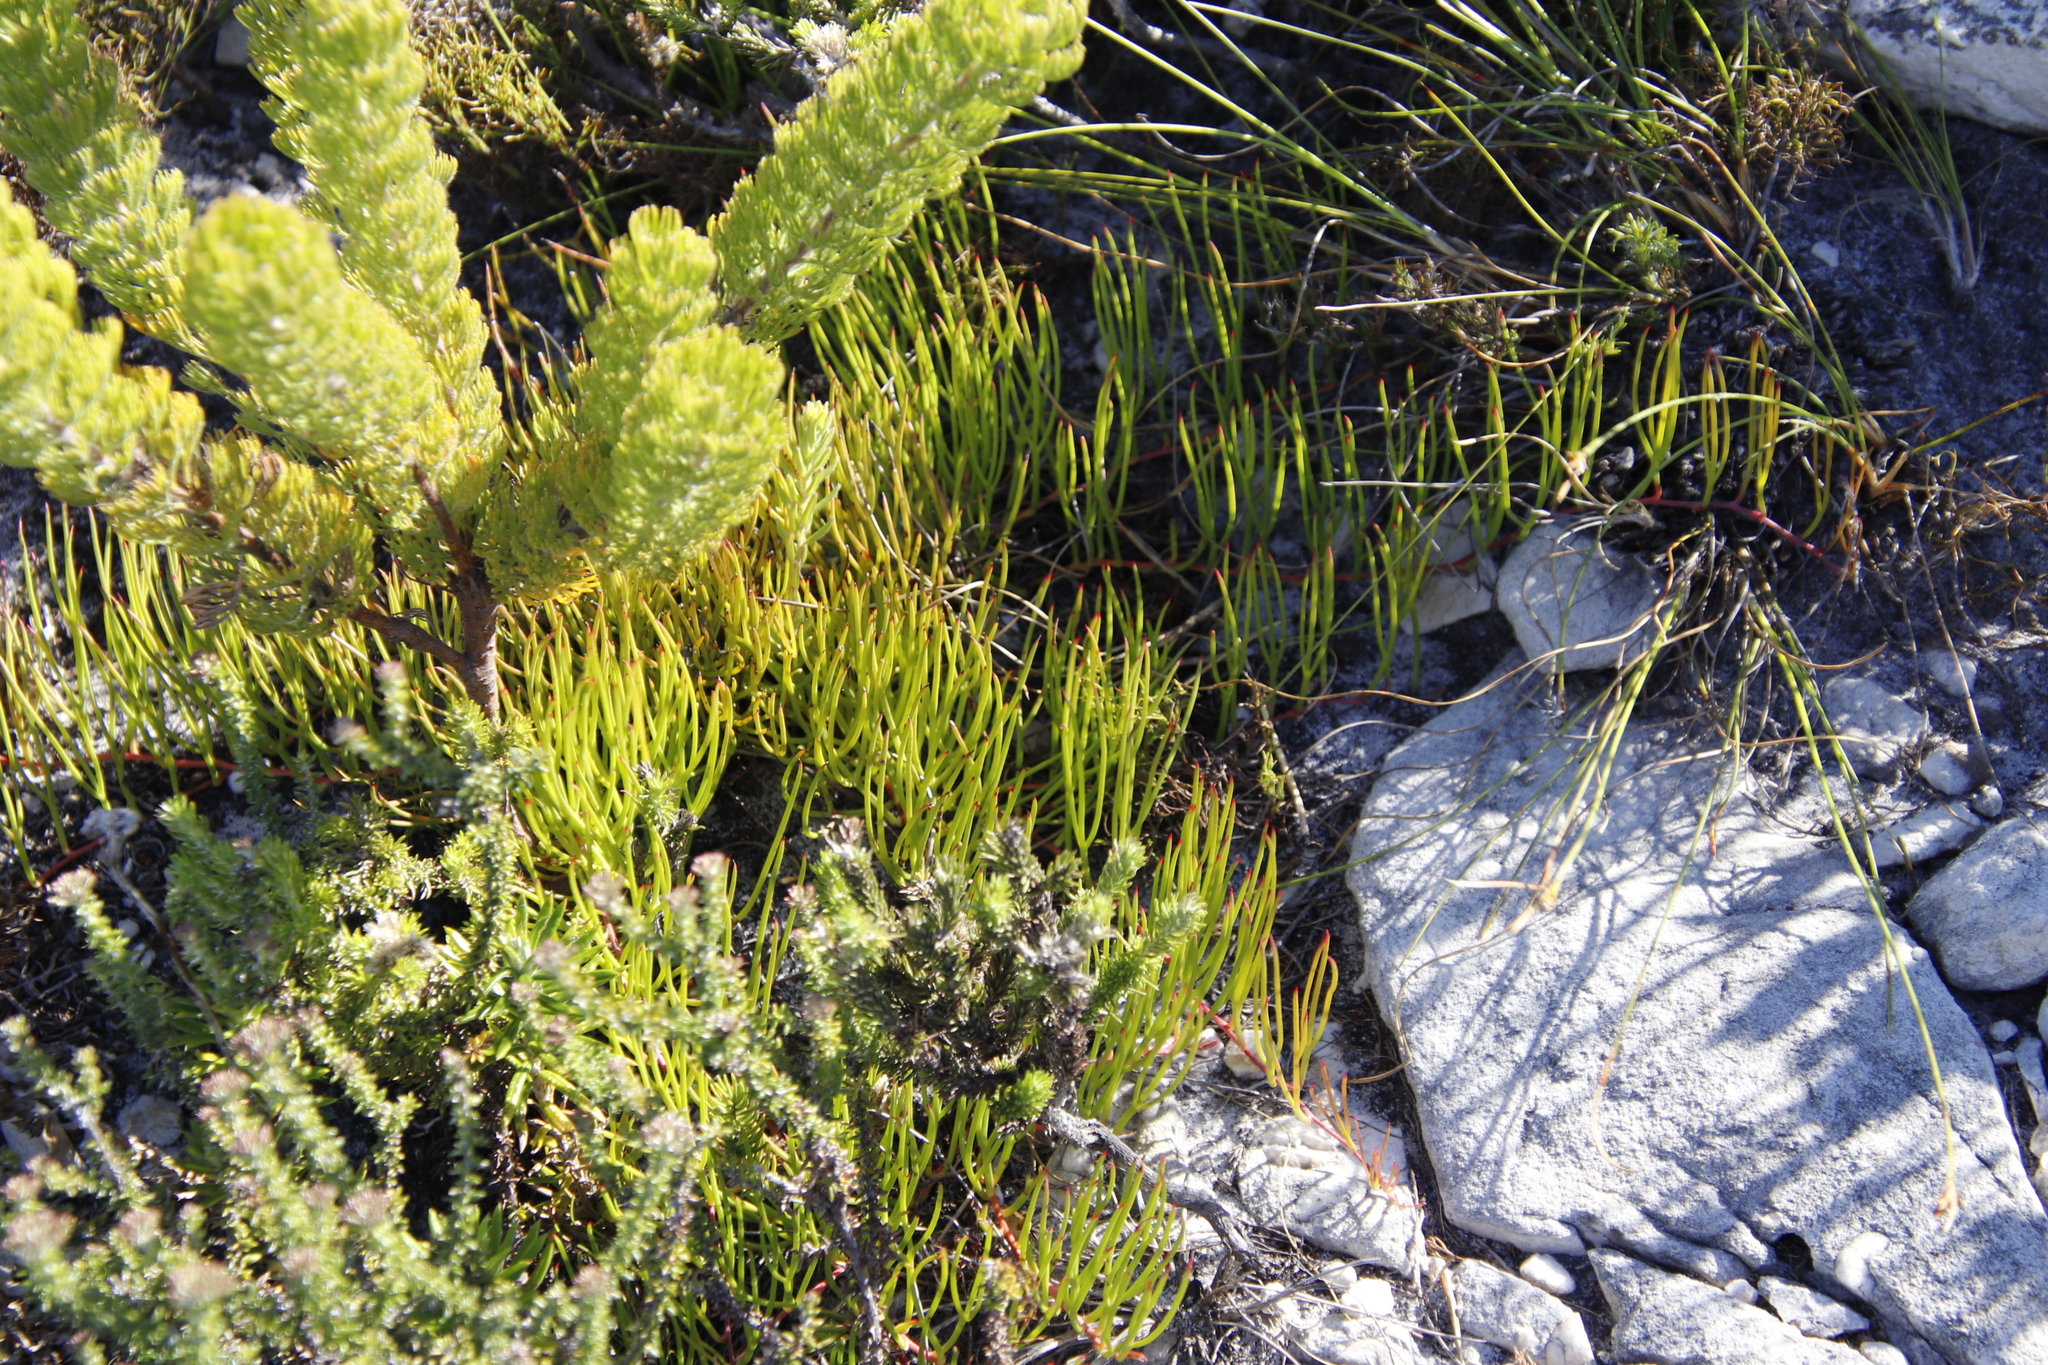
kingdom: Plantae
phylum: Tracheophyta
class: Magnoliopsida
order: Proteales
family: Proteaceae
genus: Serruria
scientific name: Serruria decumbens
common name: Peninsula spiderhead
